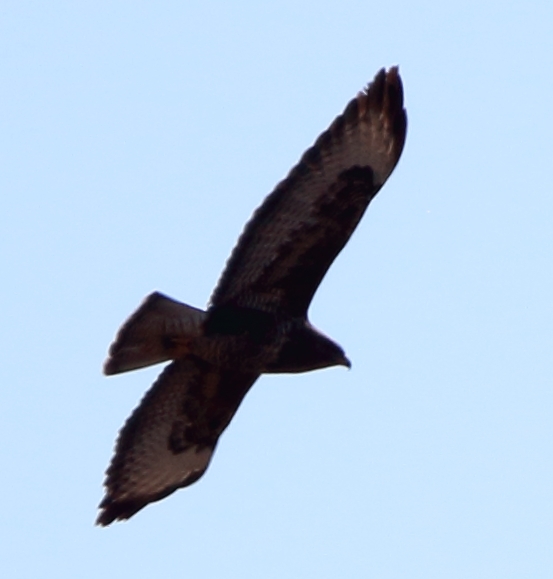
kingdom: Animalia
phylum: Chordata
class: Aves
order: Accipitriformes
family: Accipitridae
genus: Buteo
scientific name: Buteo buteo
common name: Common buzzard
